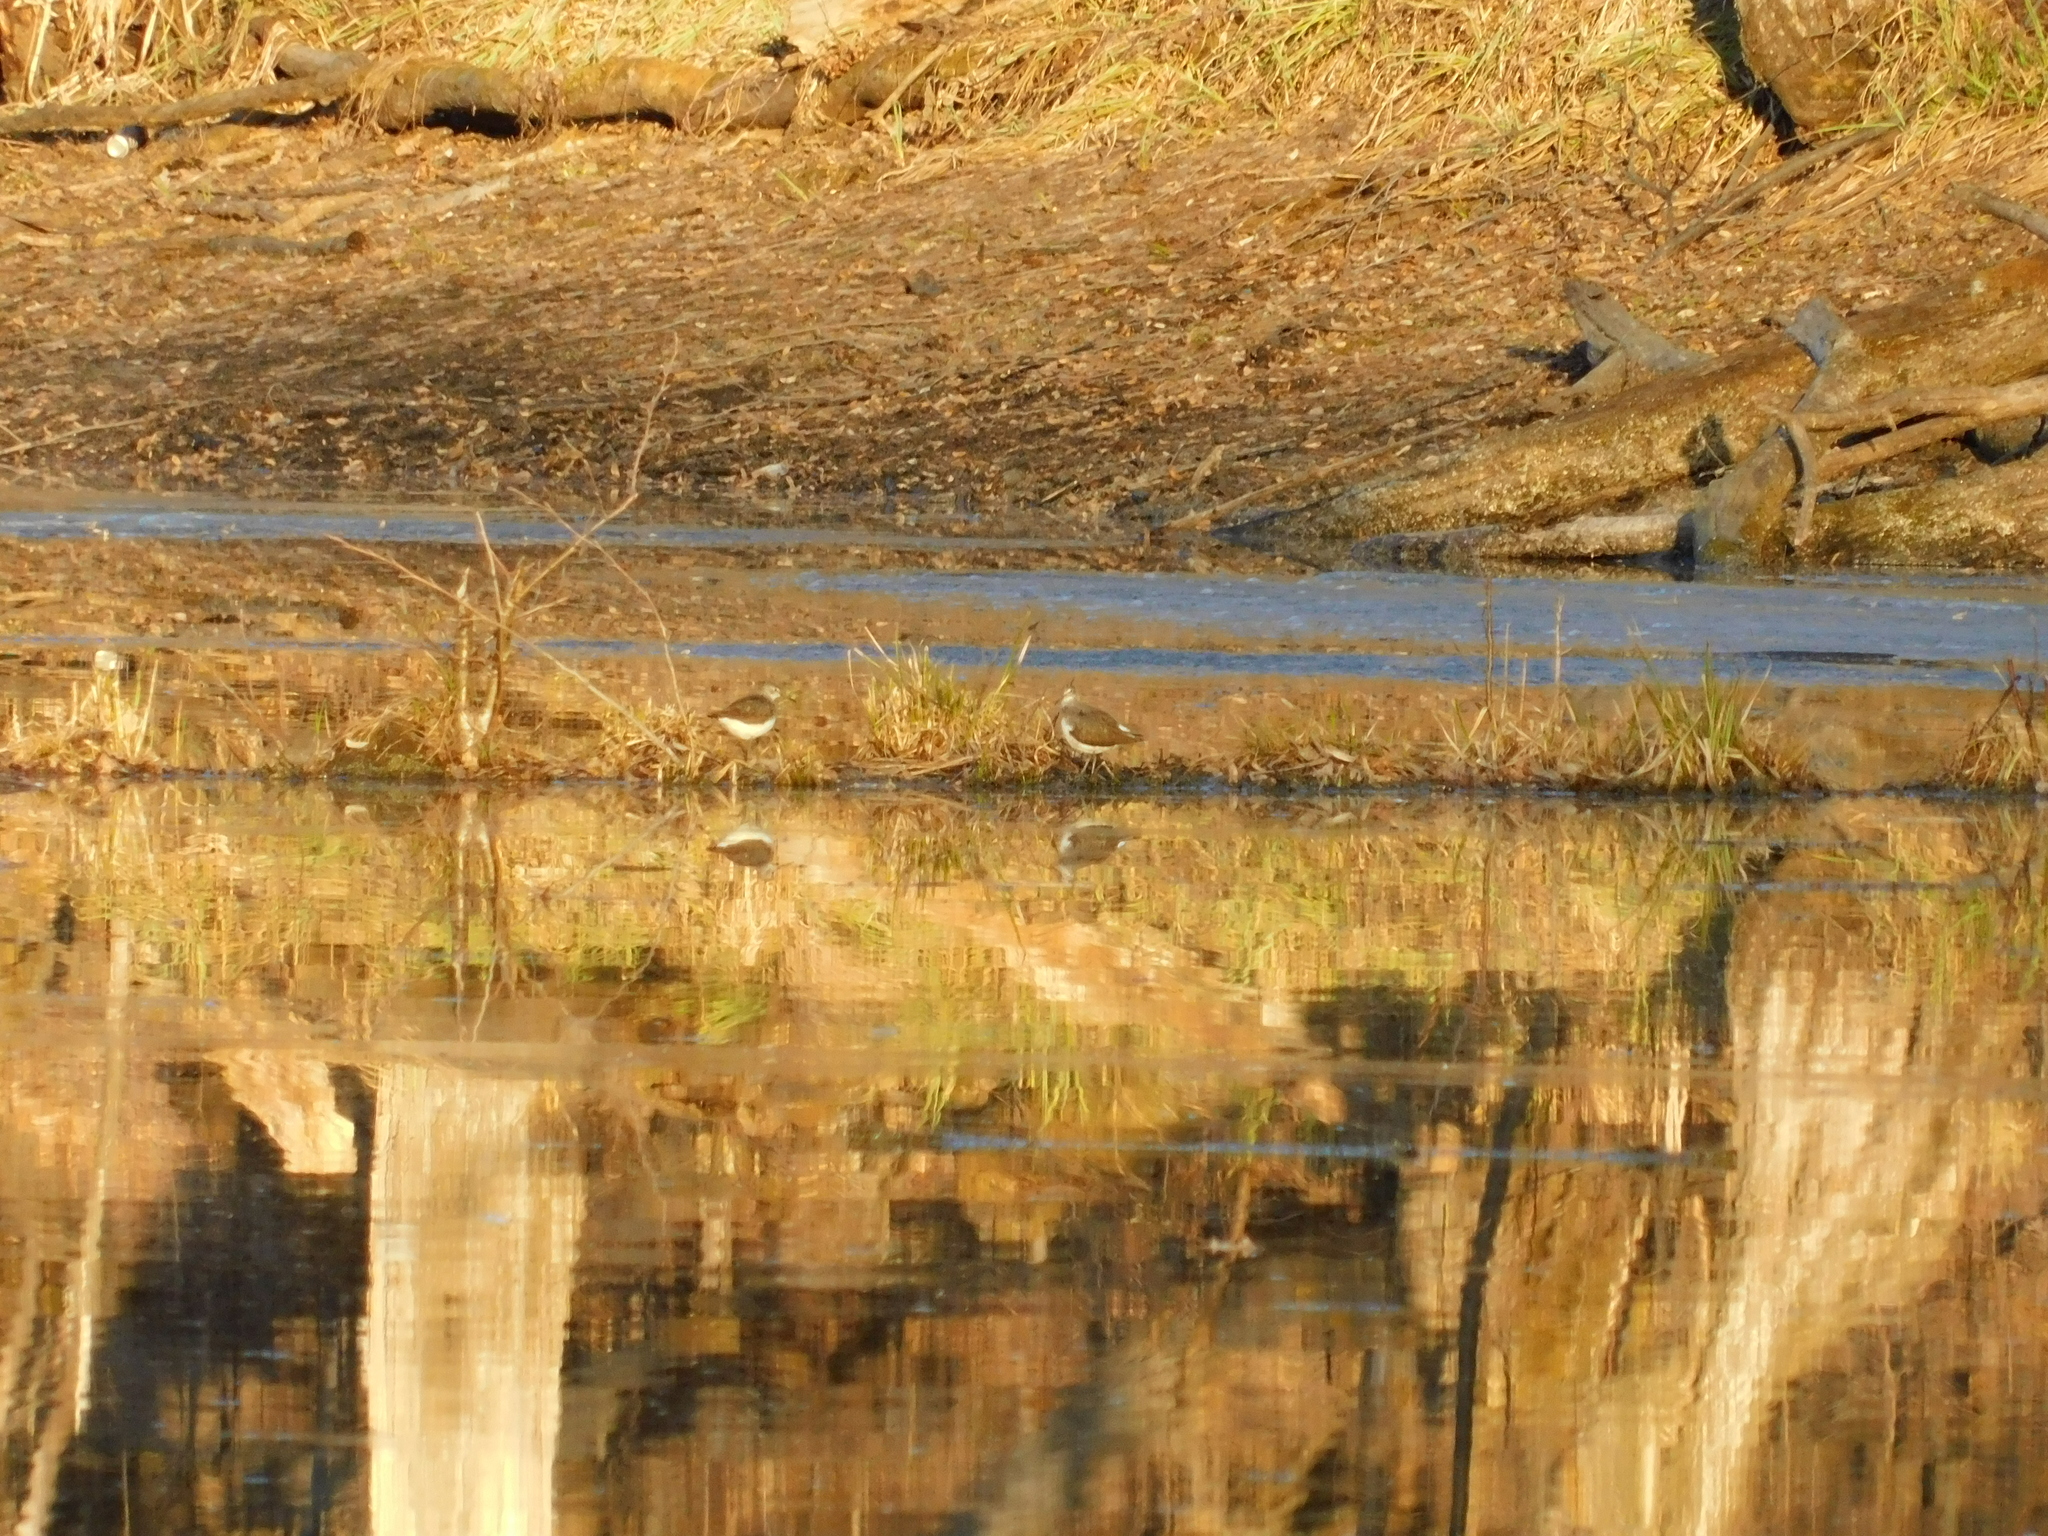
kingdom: Animalia
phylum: Chordata
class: Aves
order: Charadriiformes
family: Scolopacidae
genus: Tringa
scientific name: Tringa ochropus
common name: Green sandpiper
